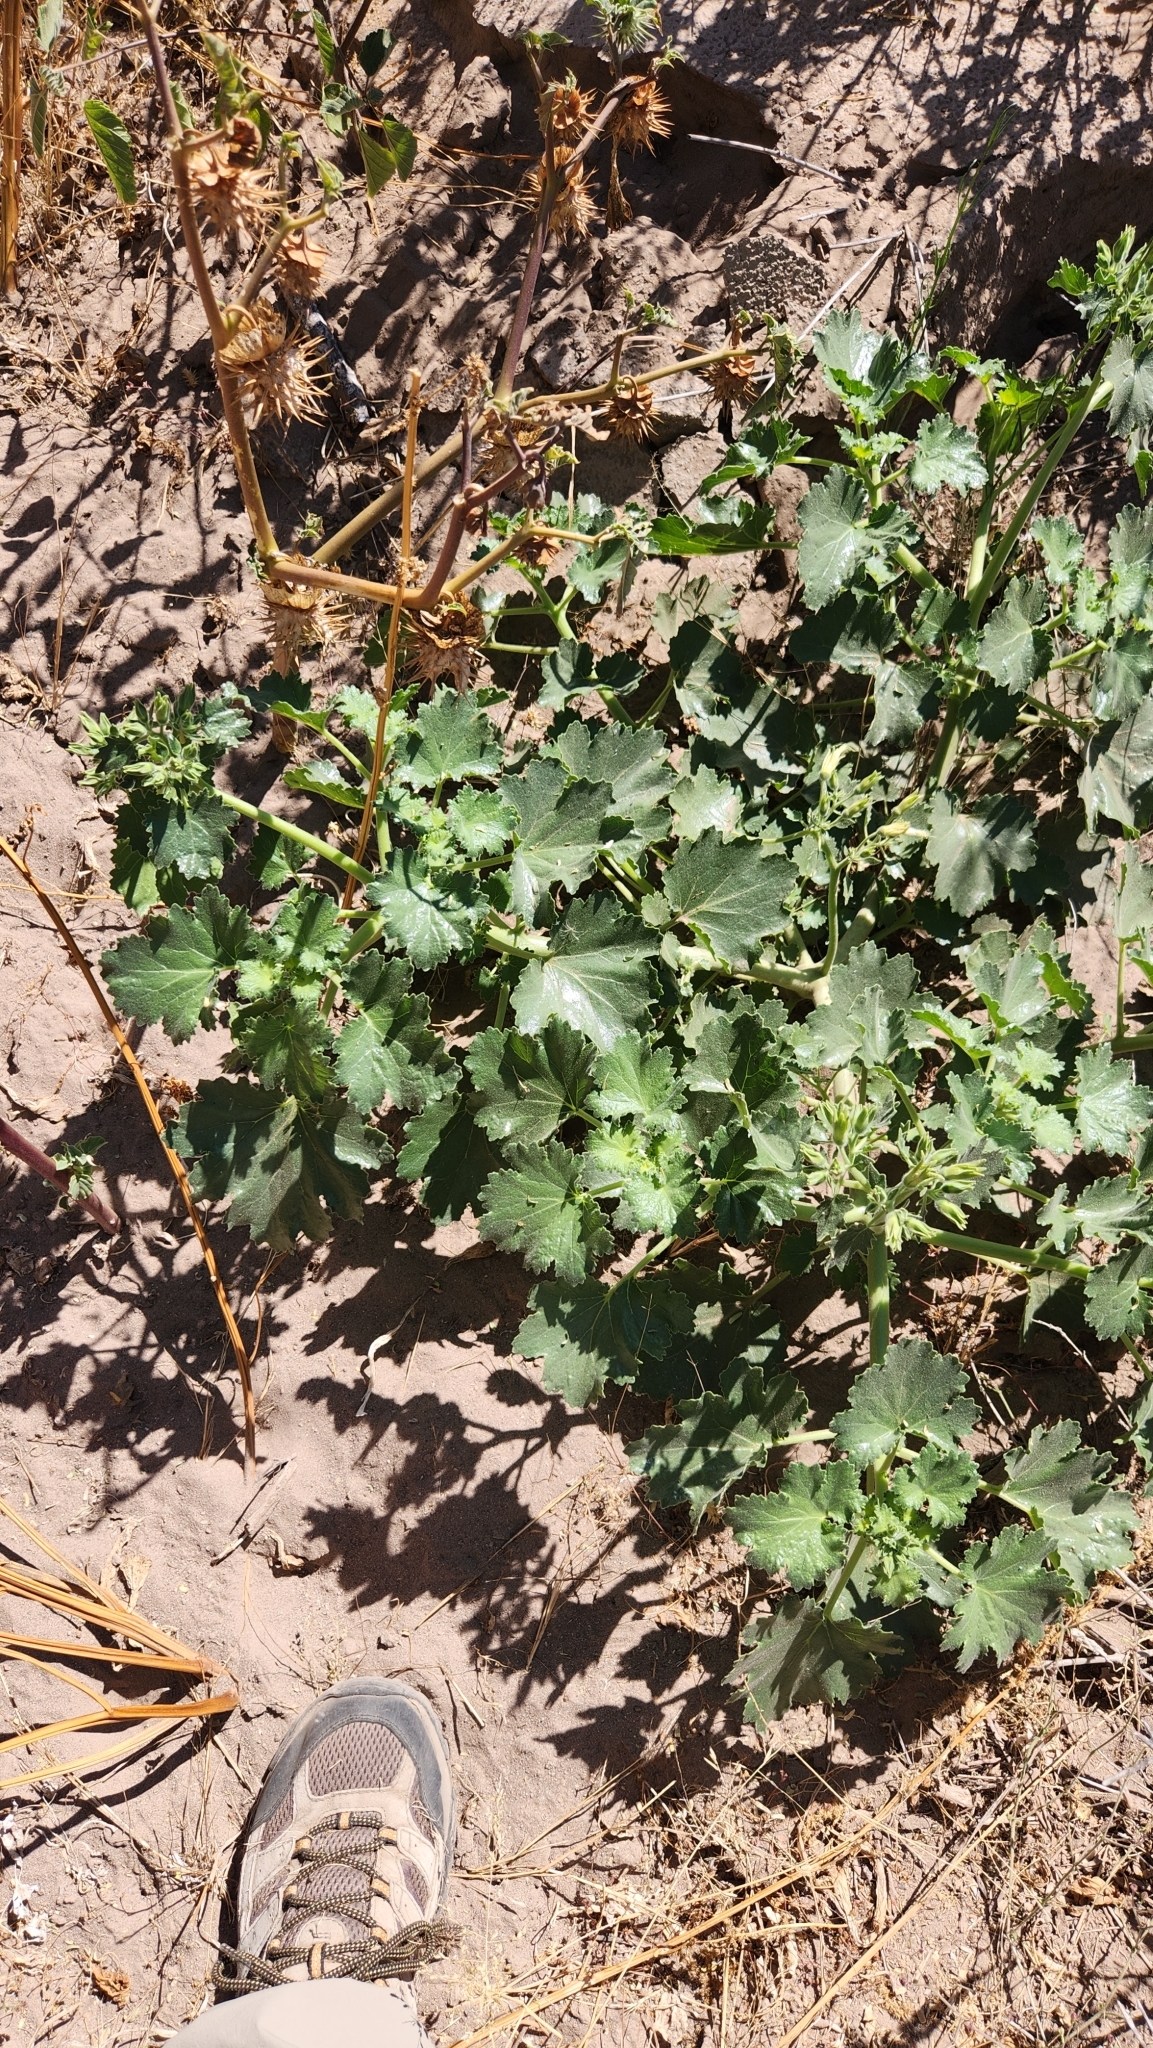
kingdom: Plantae
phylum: Tracheophyta
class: Magnoliopsida
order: Cornales
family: Loasaceae
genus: Eucnide
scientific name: Eucnide cordata
